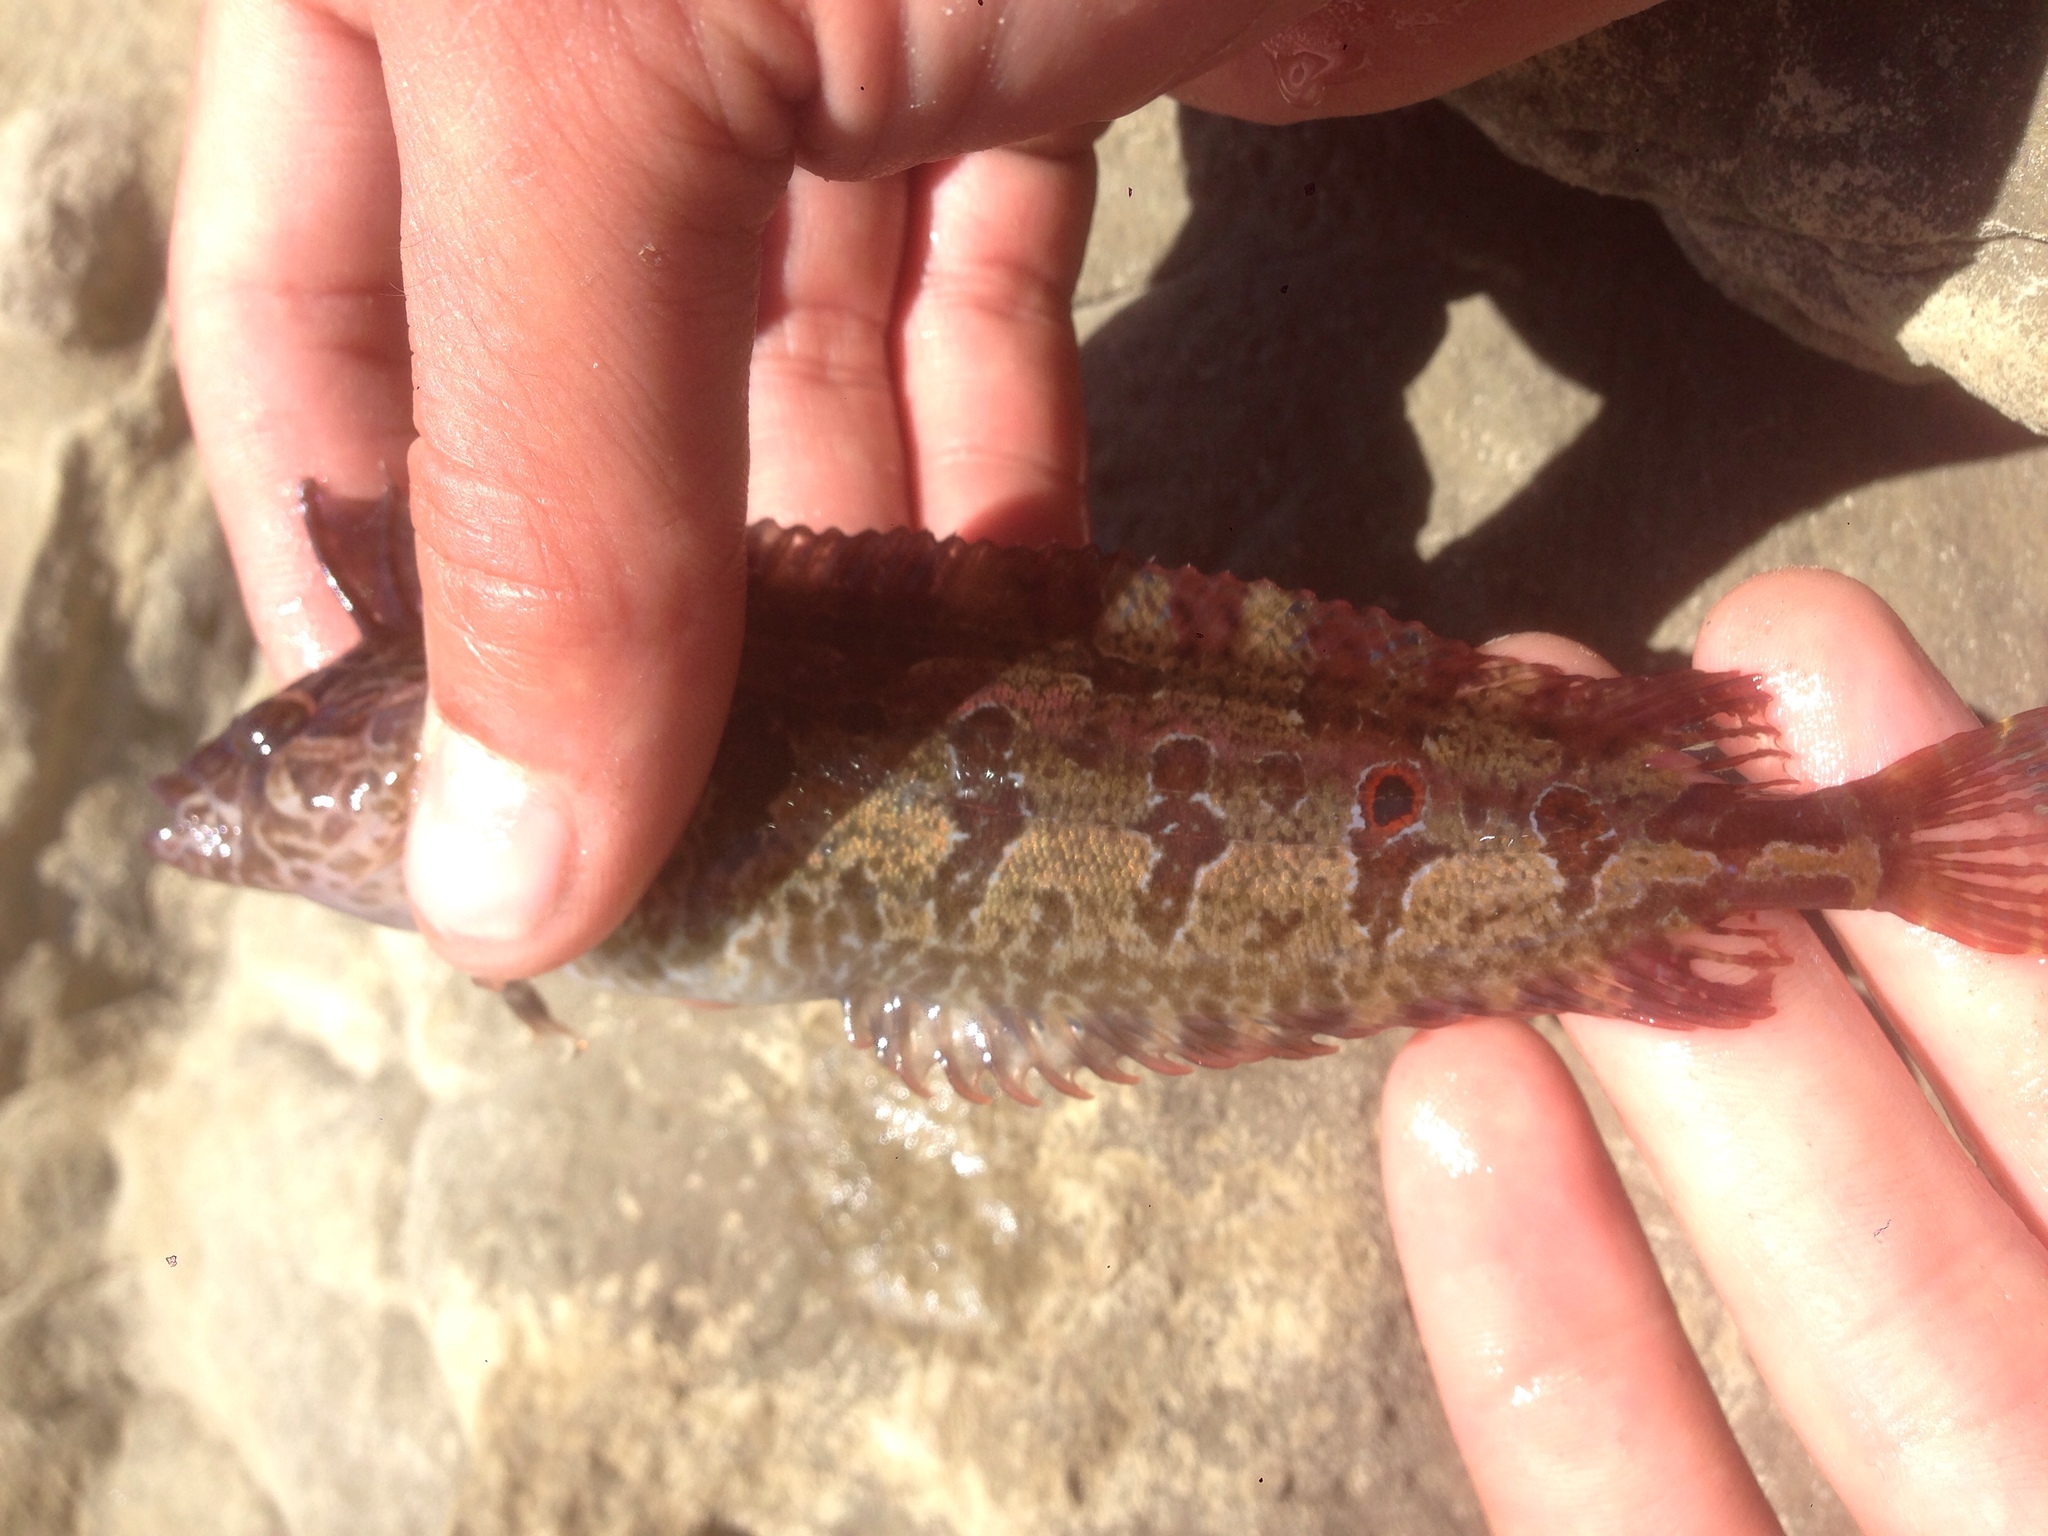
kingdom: Animalia
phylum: Chordata
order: Perciformes
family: Clinidae
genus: Gibbonsia
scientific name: Gibbonsia elegans
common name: Spotted kelpfish
